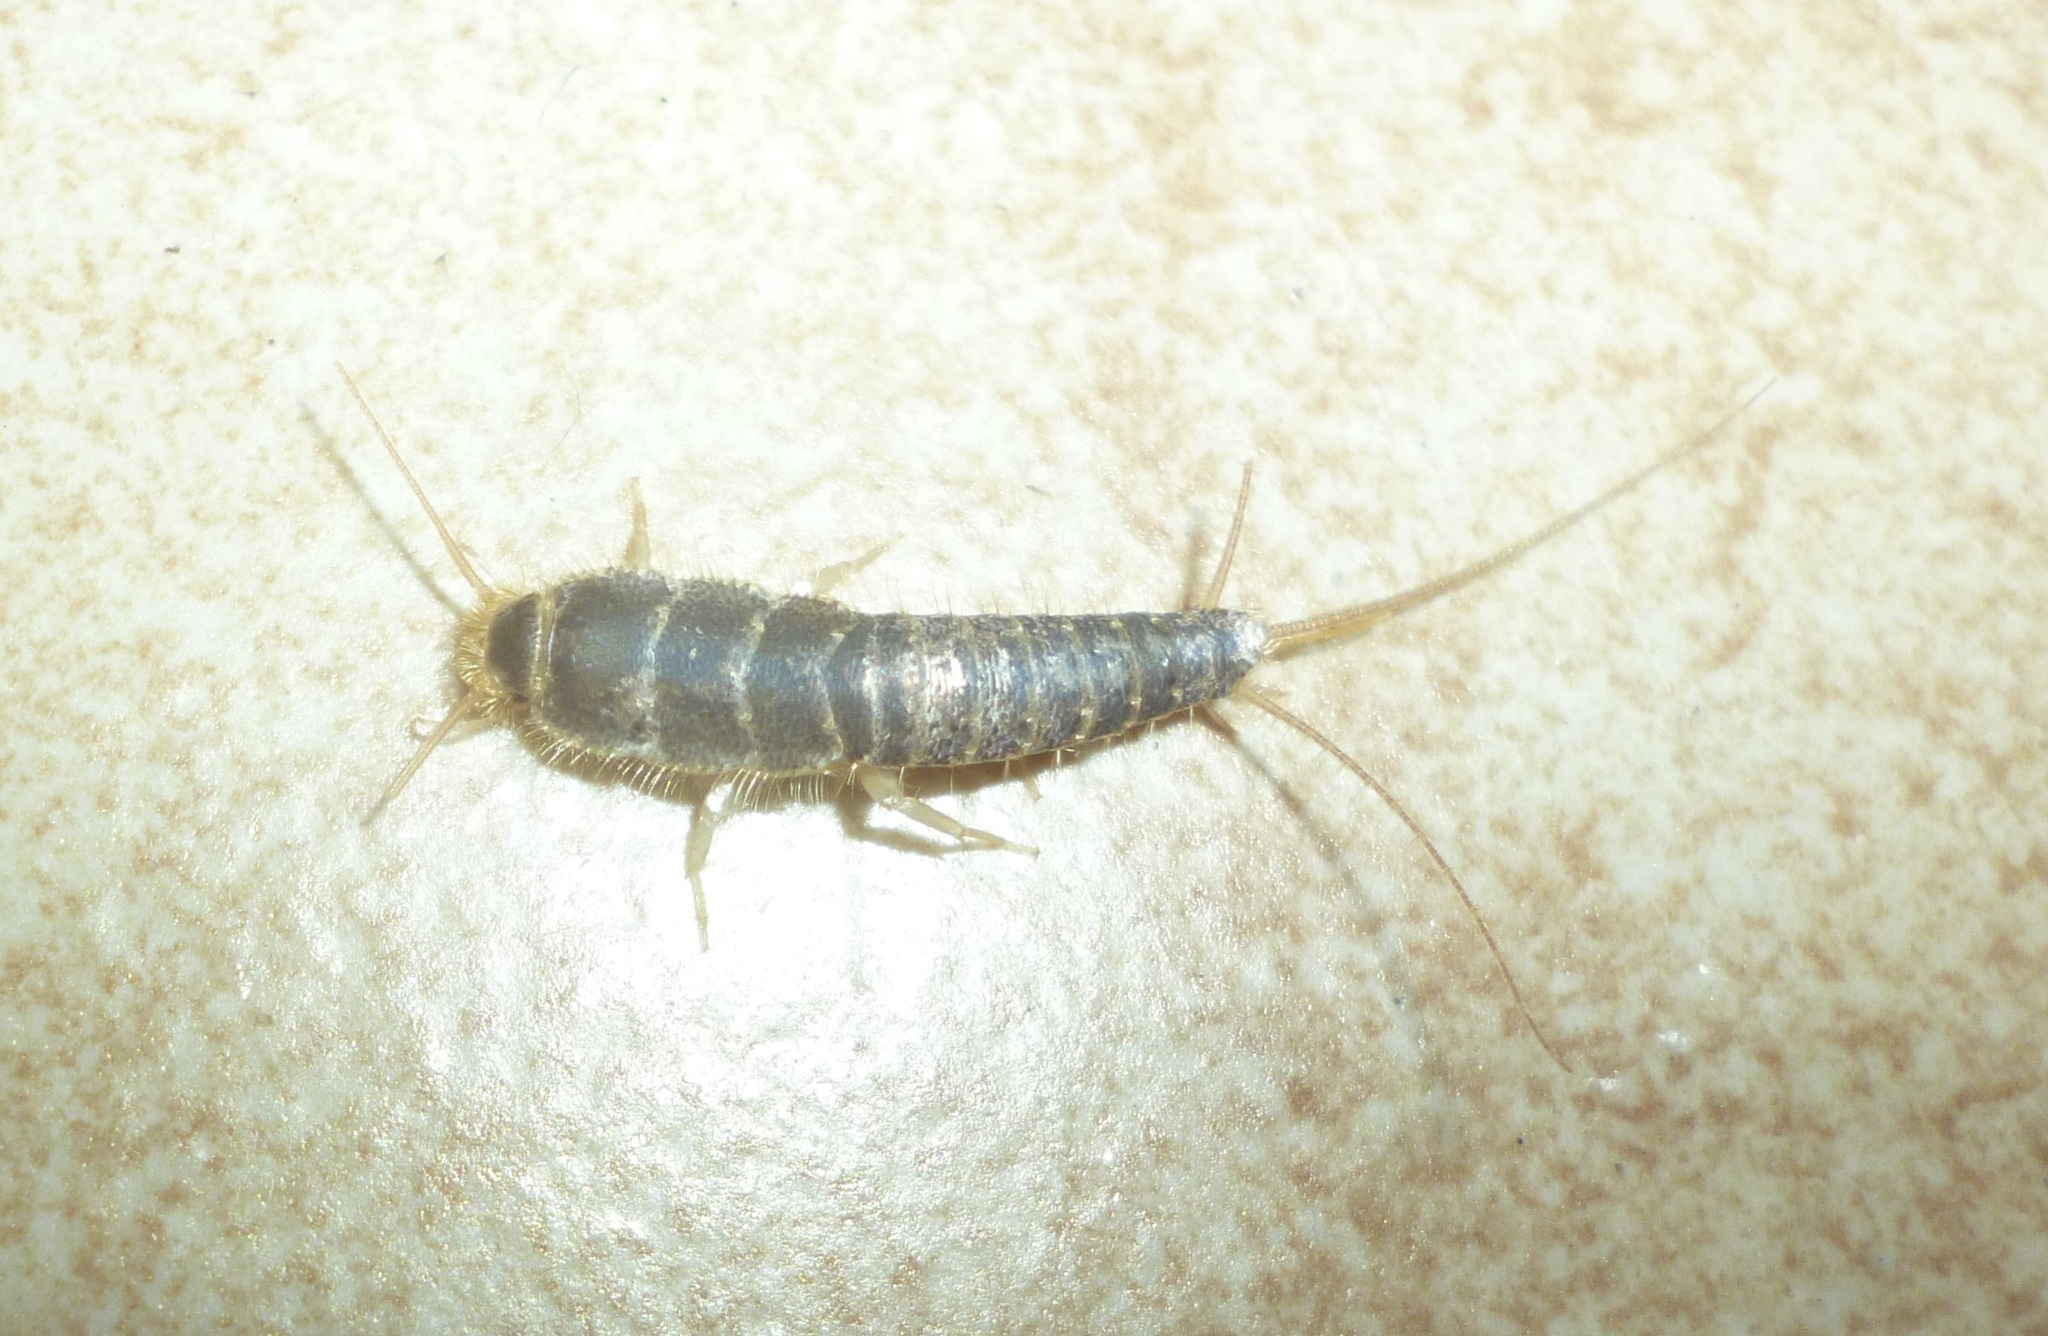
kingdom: Animalia
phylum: Arthropoda
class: Insecta
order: Zygentoma
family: Lepismatidae
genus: Ctenolepisma
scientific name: Ctenolepisma longicaudatum
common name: Silverfish
